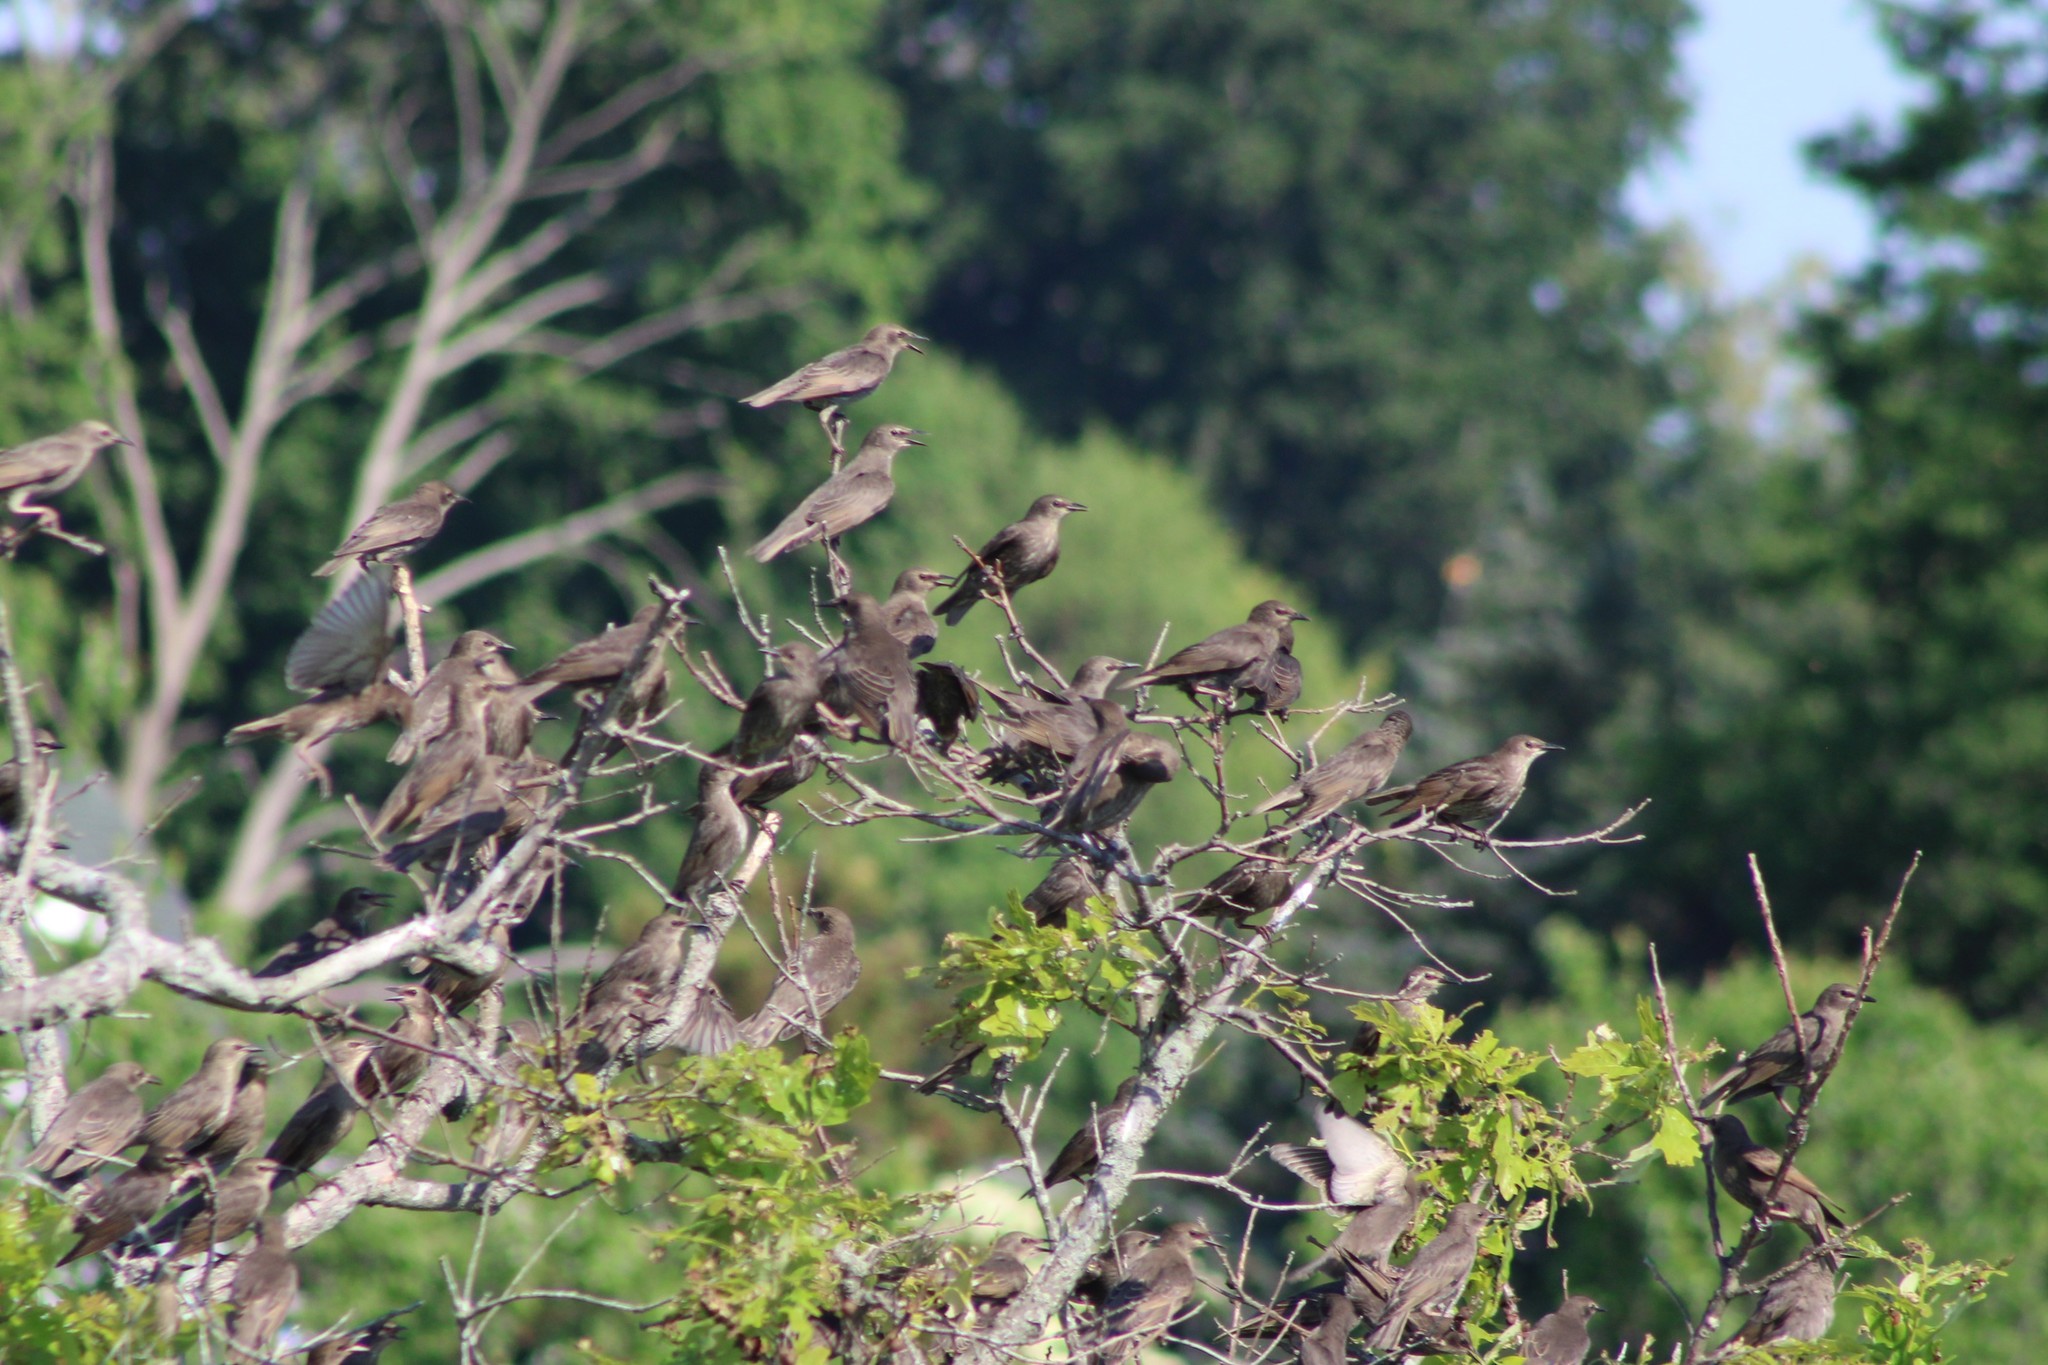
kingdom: Animalia
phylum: Chordata
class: Aves
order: Passeriformes
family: Sturnidae
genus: Sturnus
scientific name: Sturnus vulgaris
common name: Common starling
